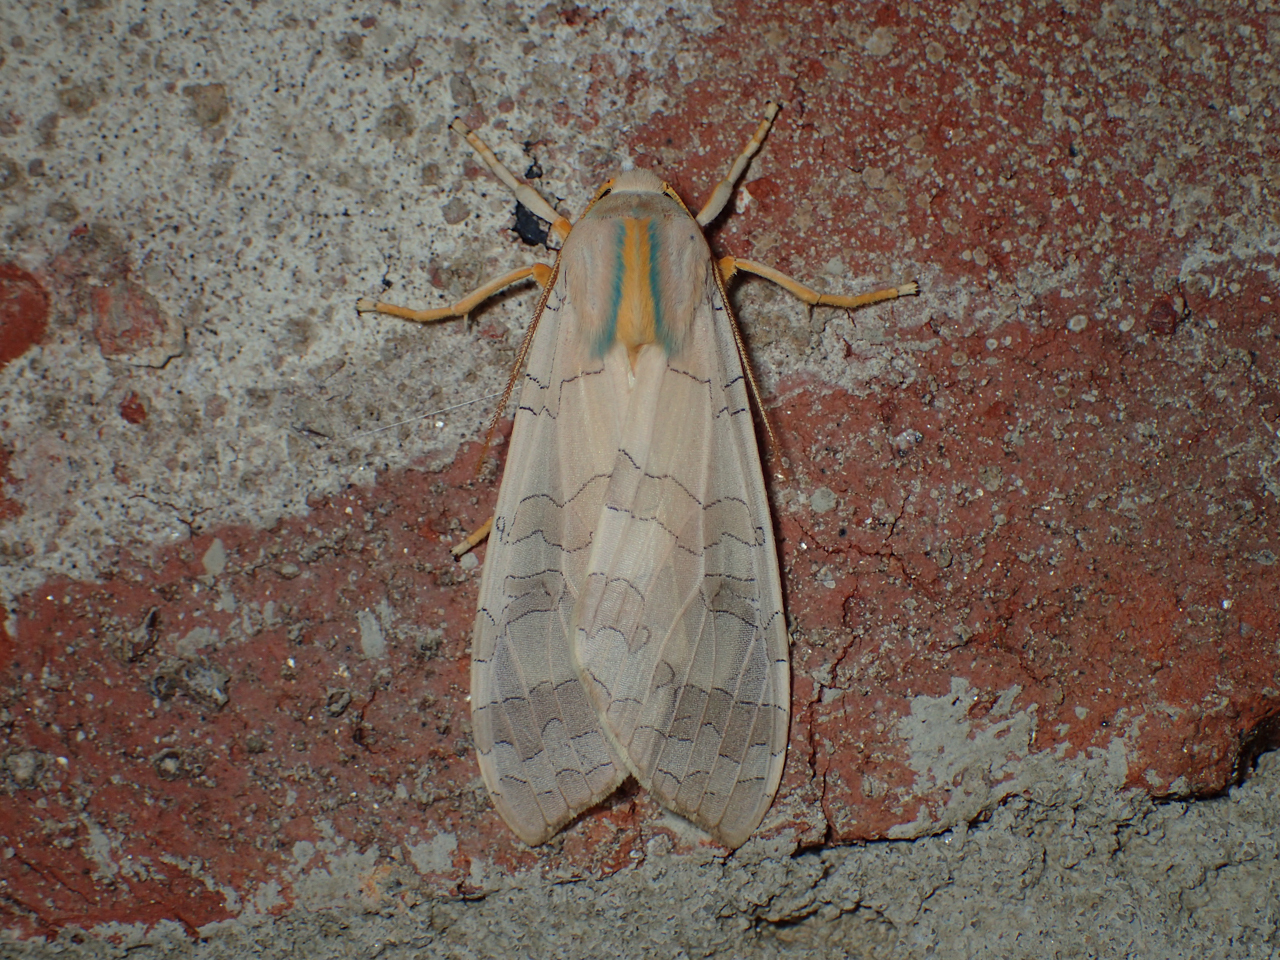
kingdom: Animalia
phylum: Arthropoda
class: Insecta
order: Lepidoptera
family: Erebidae
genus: Halysidota
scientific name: Halysidota
